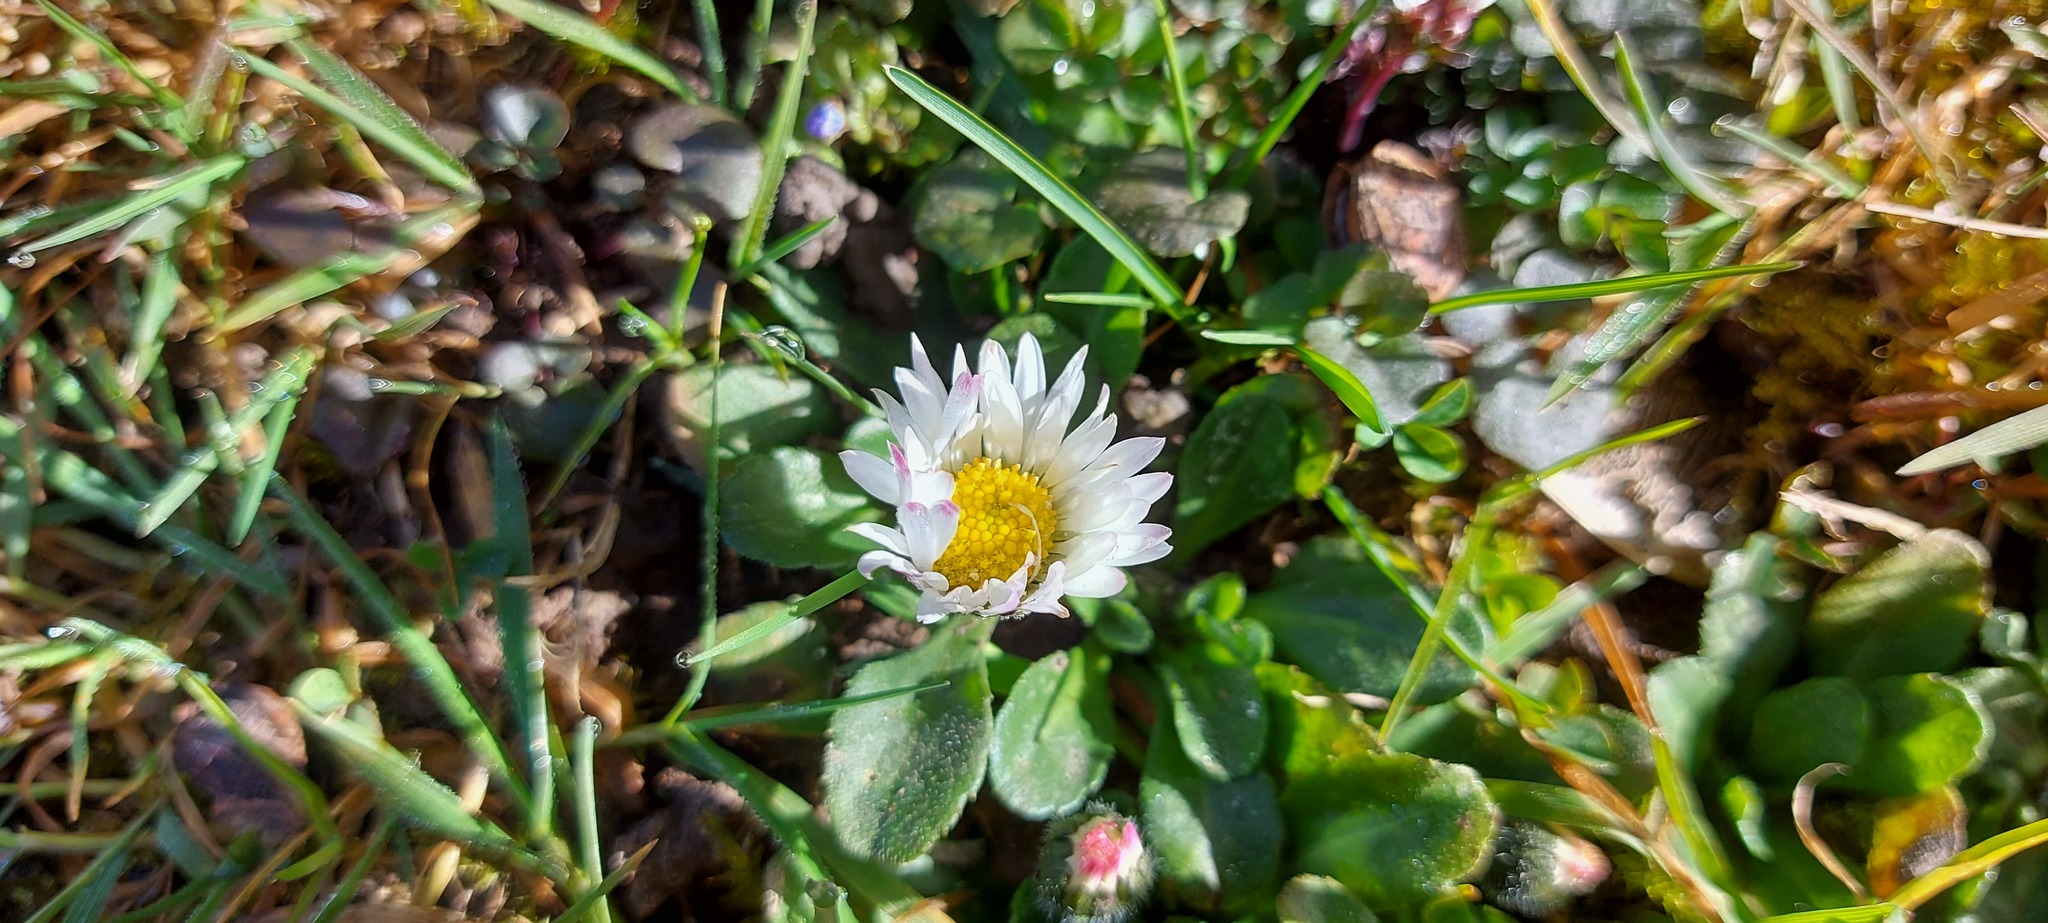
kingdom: Plantae
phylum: Tracheophyta
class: Magnoliopsida
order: Asterales
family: Asteraceae
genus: Bellis
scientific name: Bellis perennis
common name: Lawndaisy
